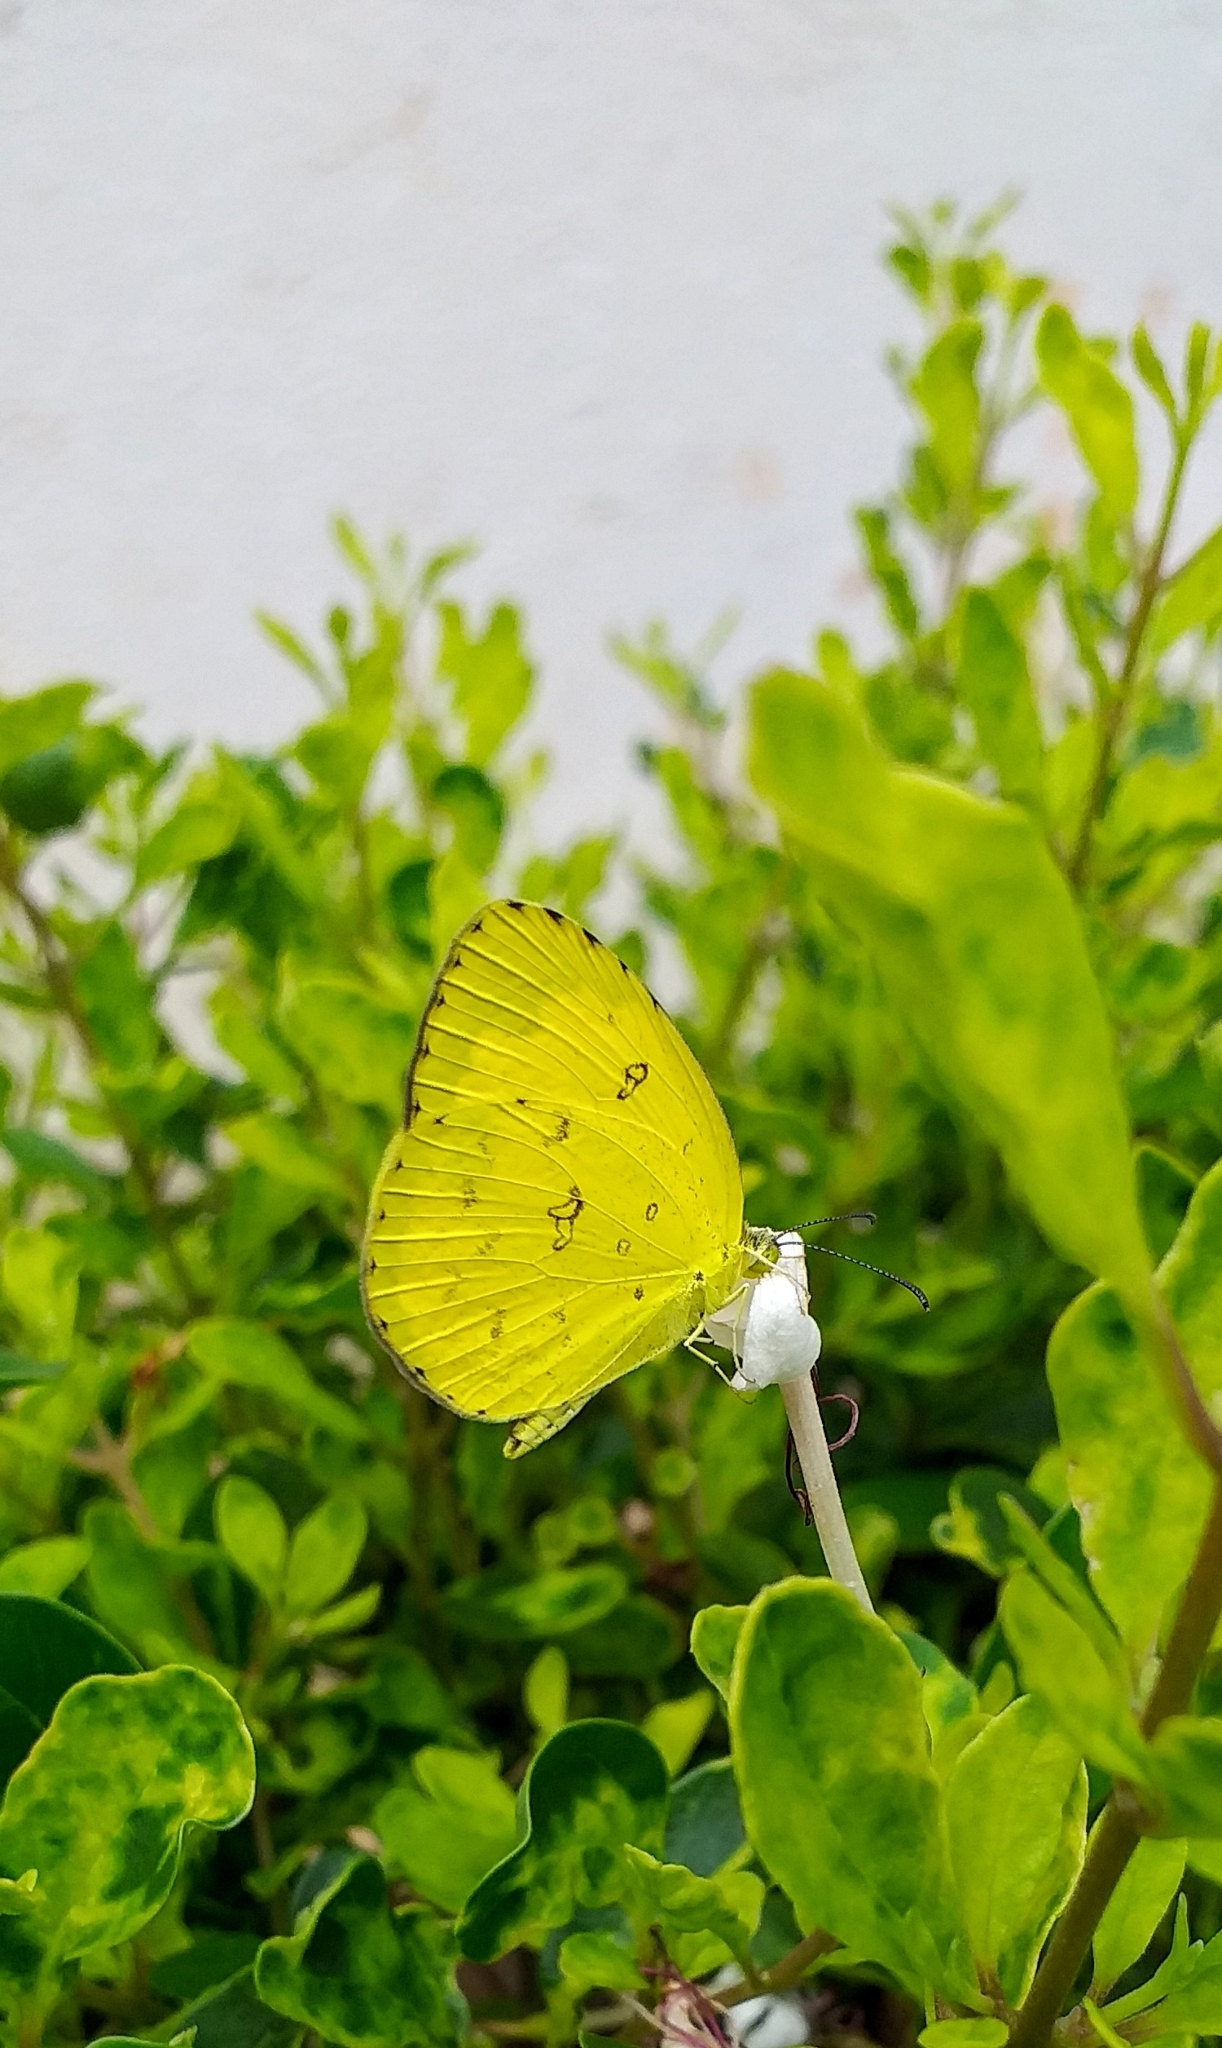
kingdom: Animalia
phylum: Arthropoda
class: Insecta
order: Lepidoptera
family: Pieridae
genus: Eurema
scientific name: Eurema blanda
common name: Three-spot grass yellow
